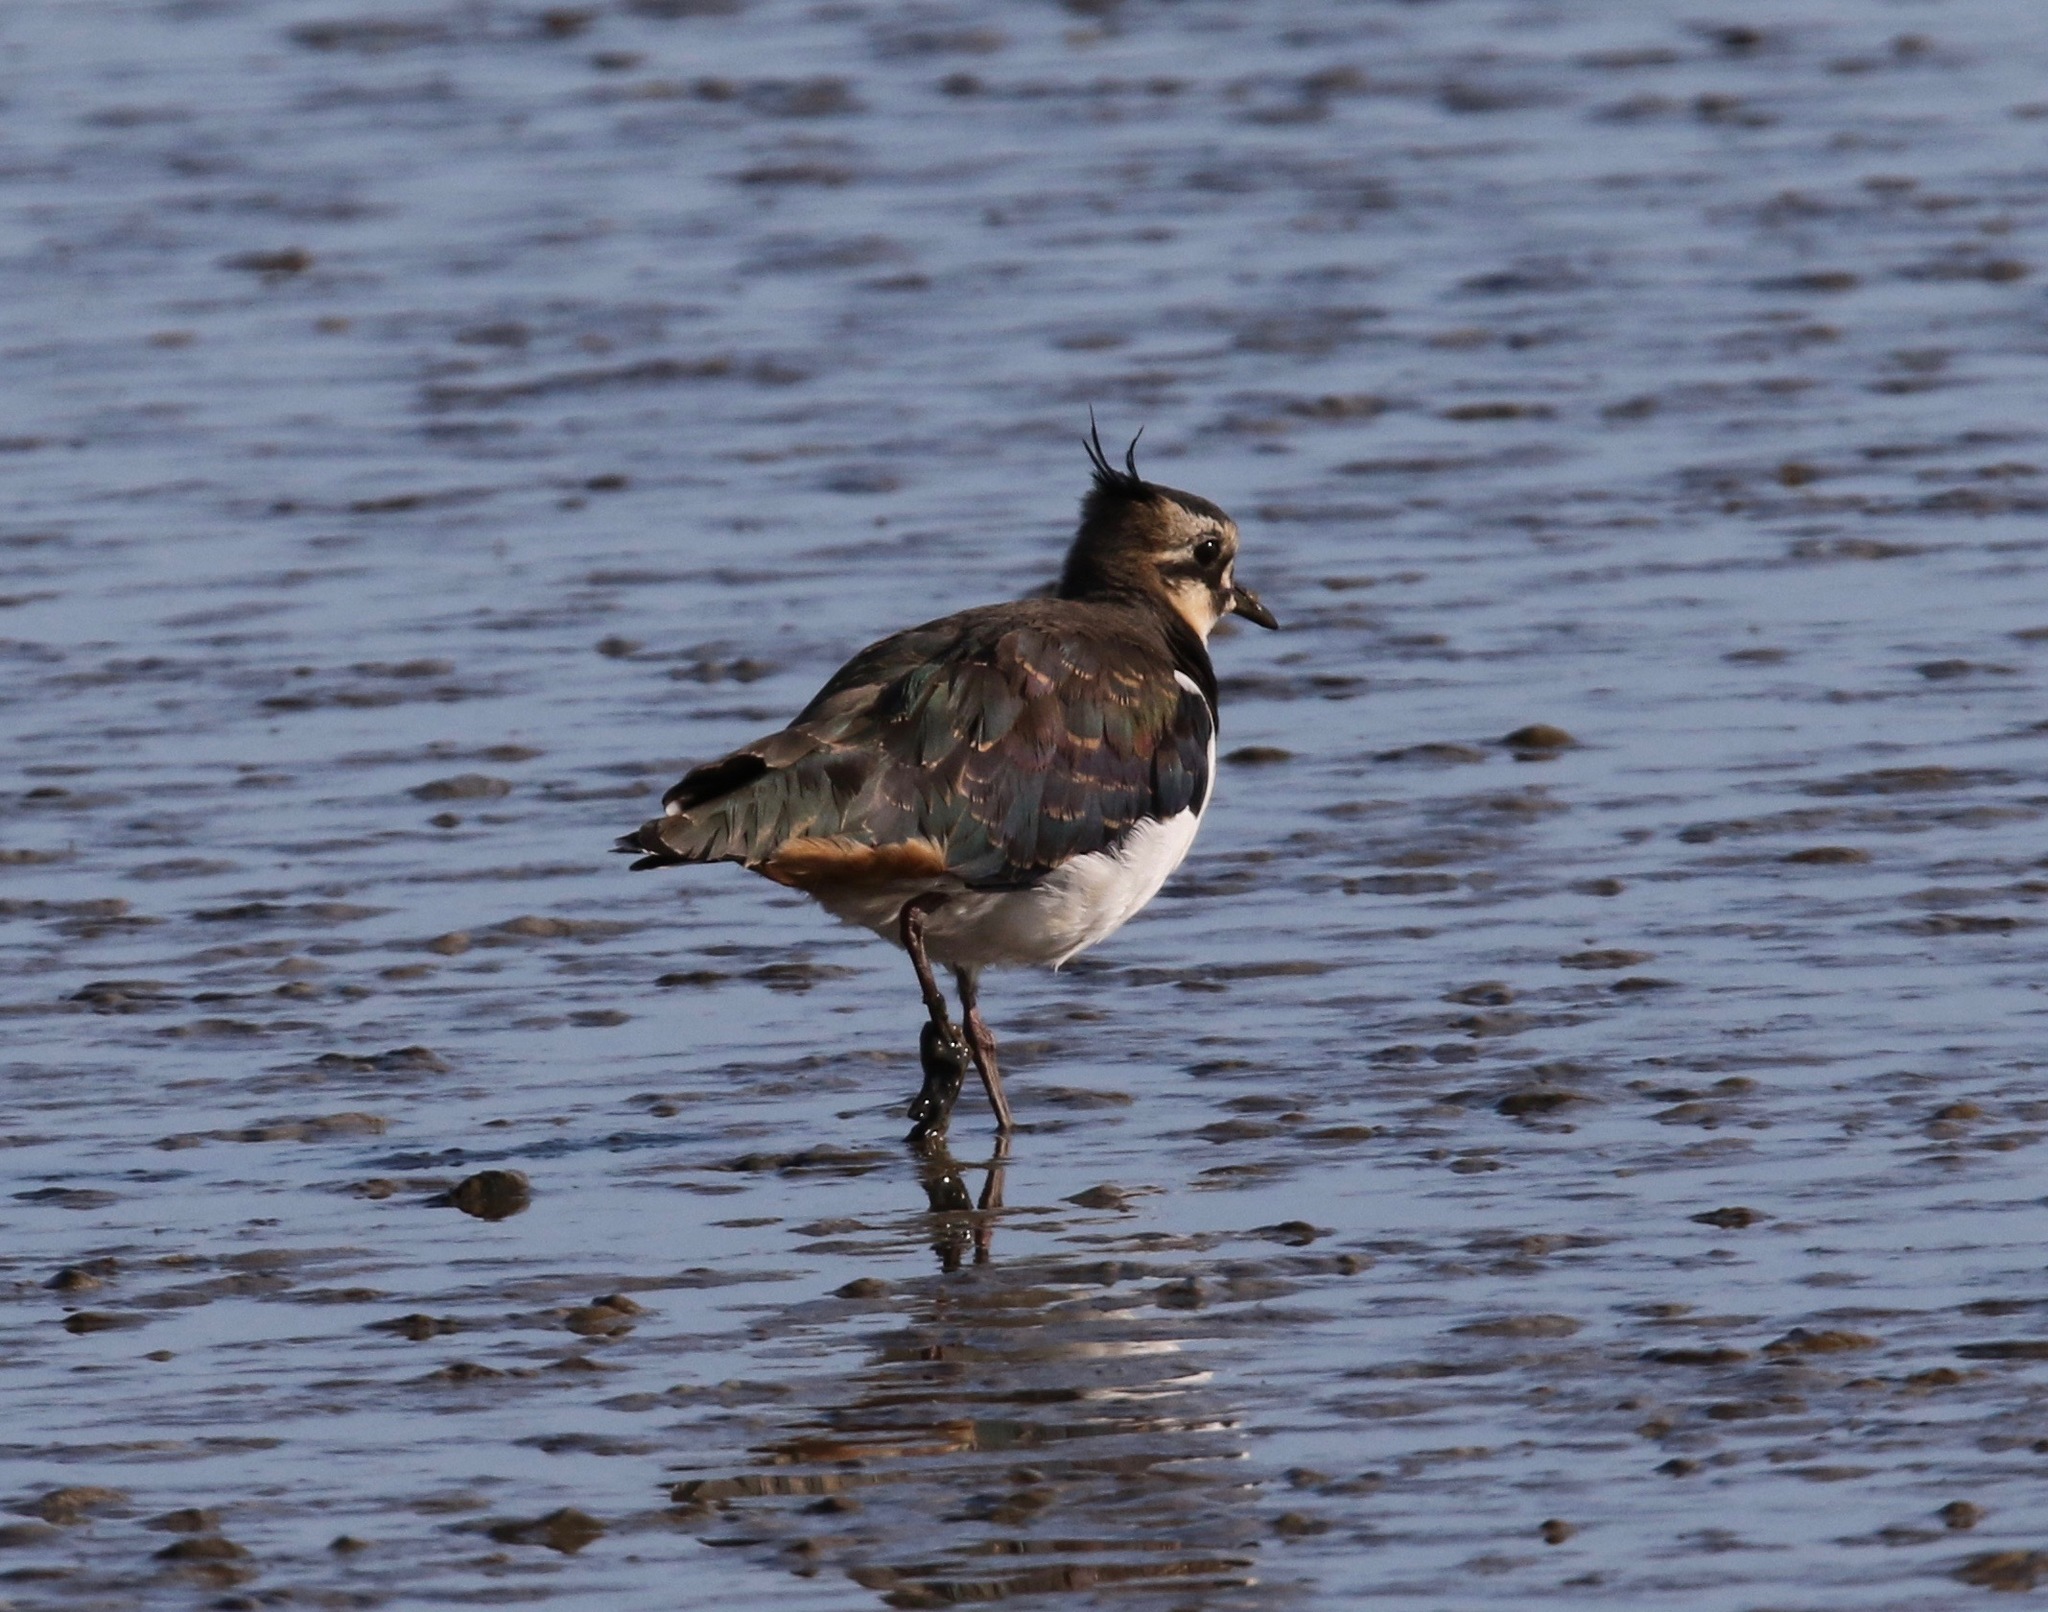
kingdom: Animalia
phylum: Chordata
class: Aves
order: Charadriiformes
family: Charadriidae
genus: Vanellus
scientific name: Vanellus vanellus
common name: Northern lapwing
